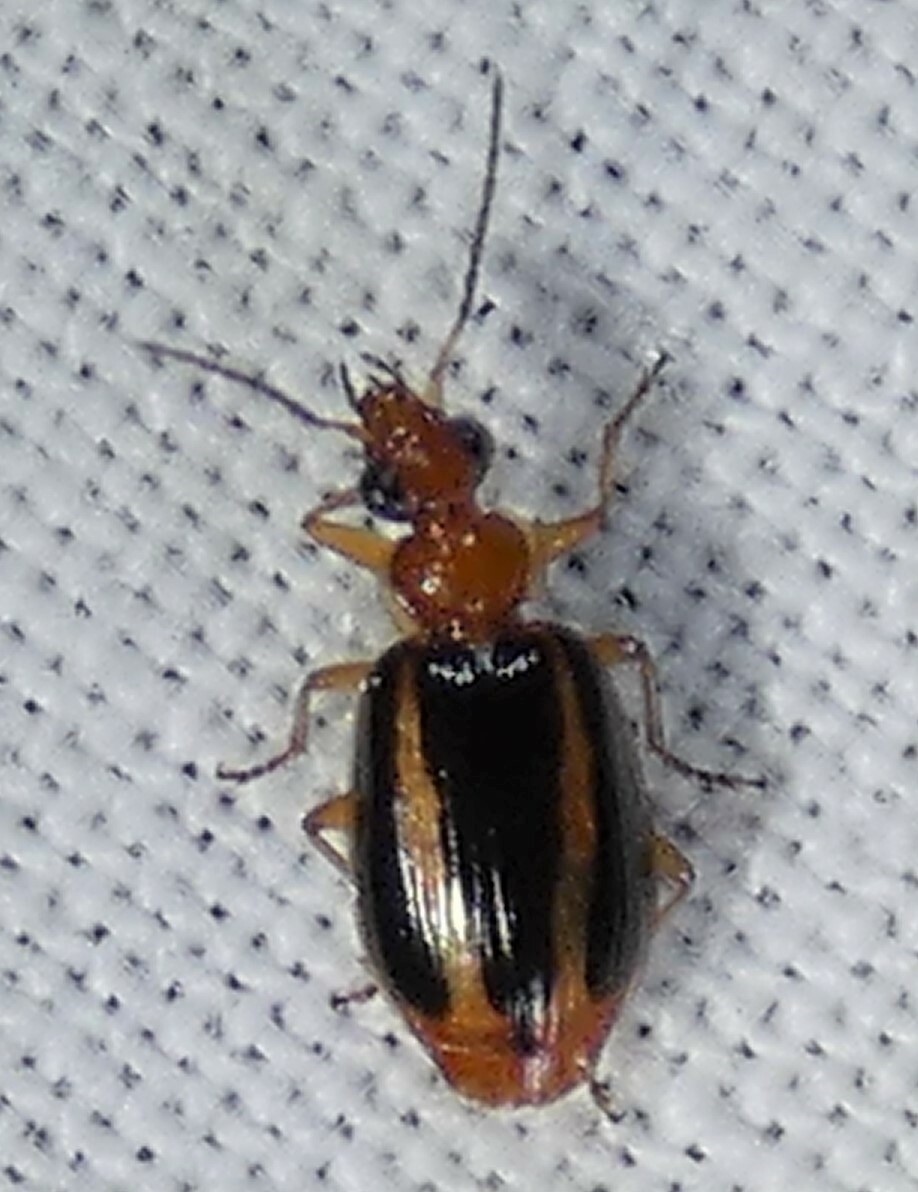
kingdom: Animalia
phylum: Arthropoda
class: Insecta
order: Coleoptera
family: Carabidae
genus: Lebia
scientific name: Lebia solea
